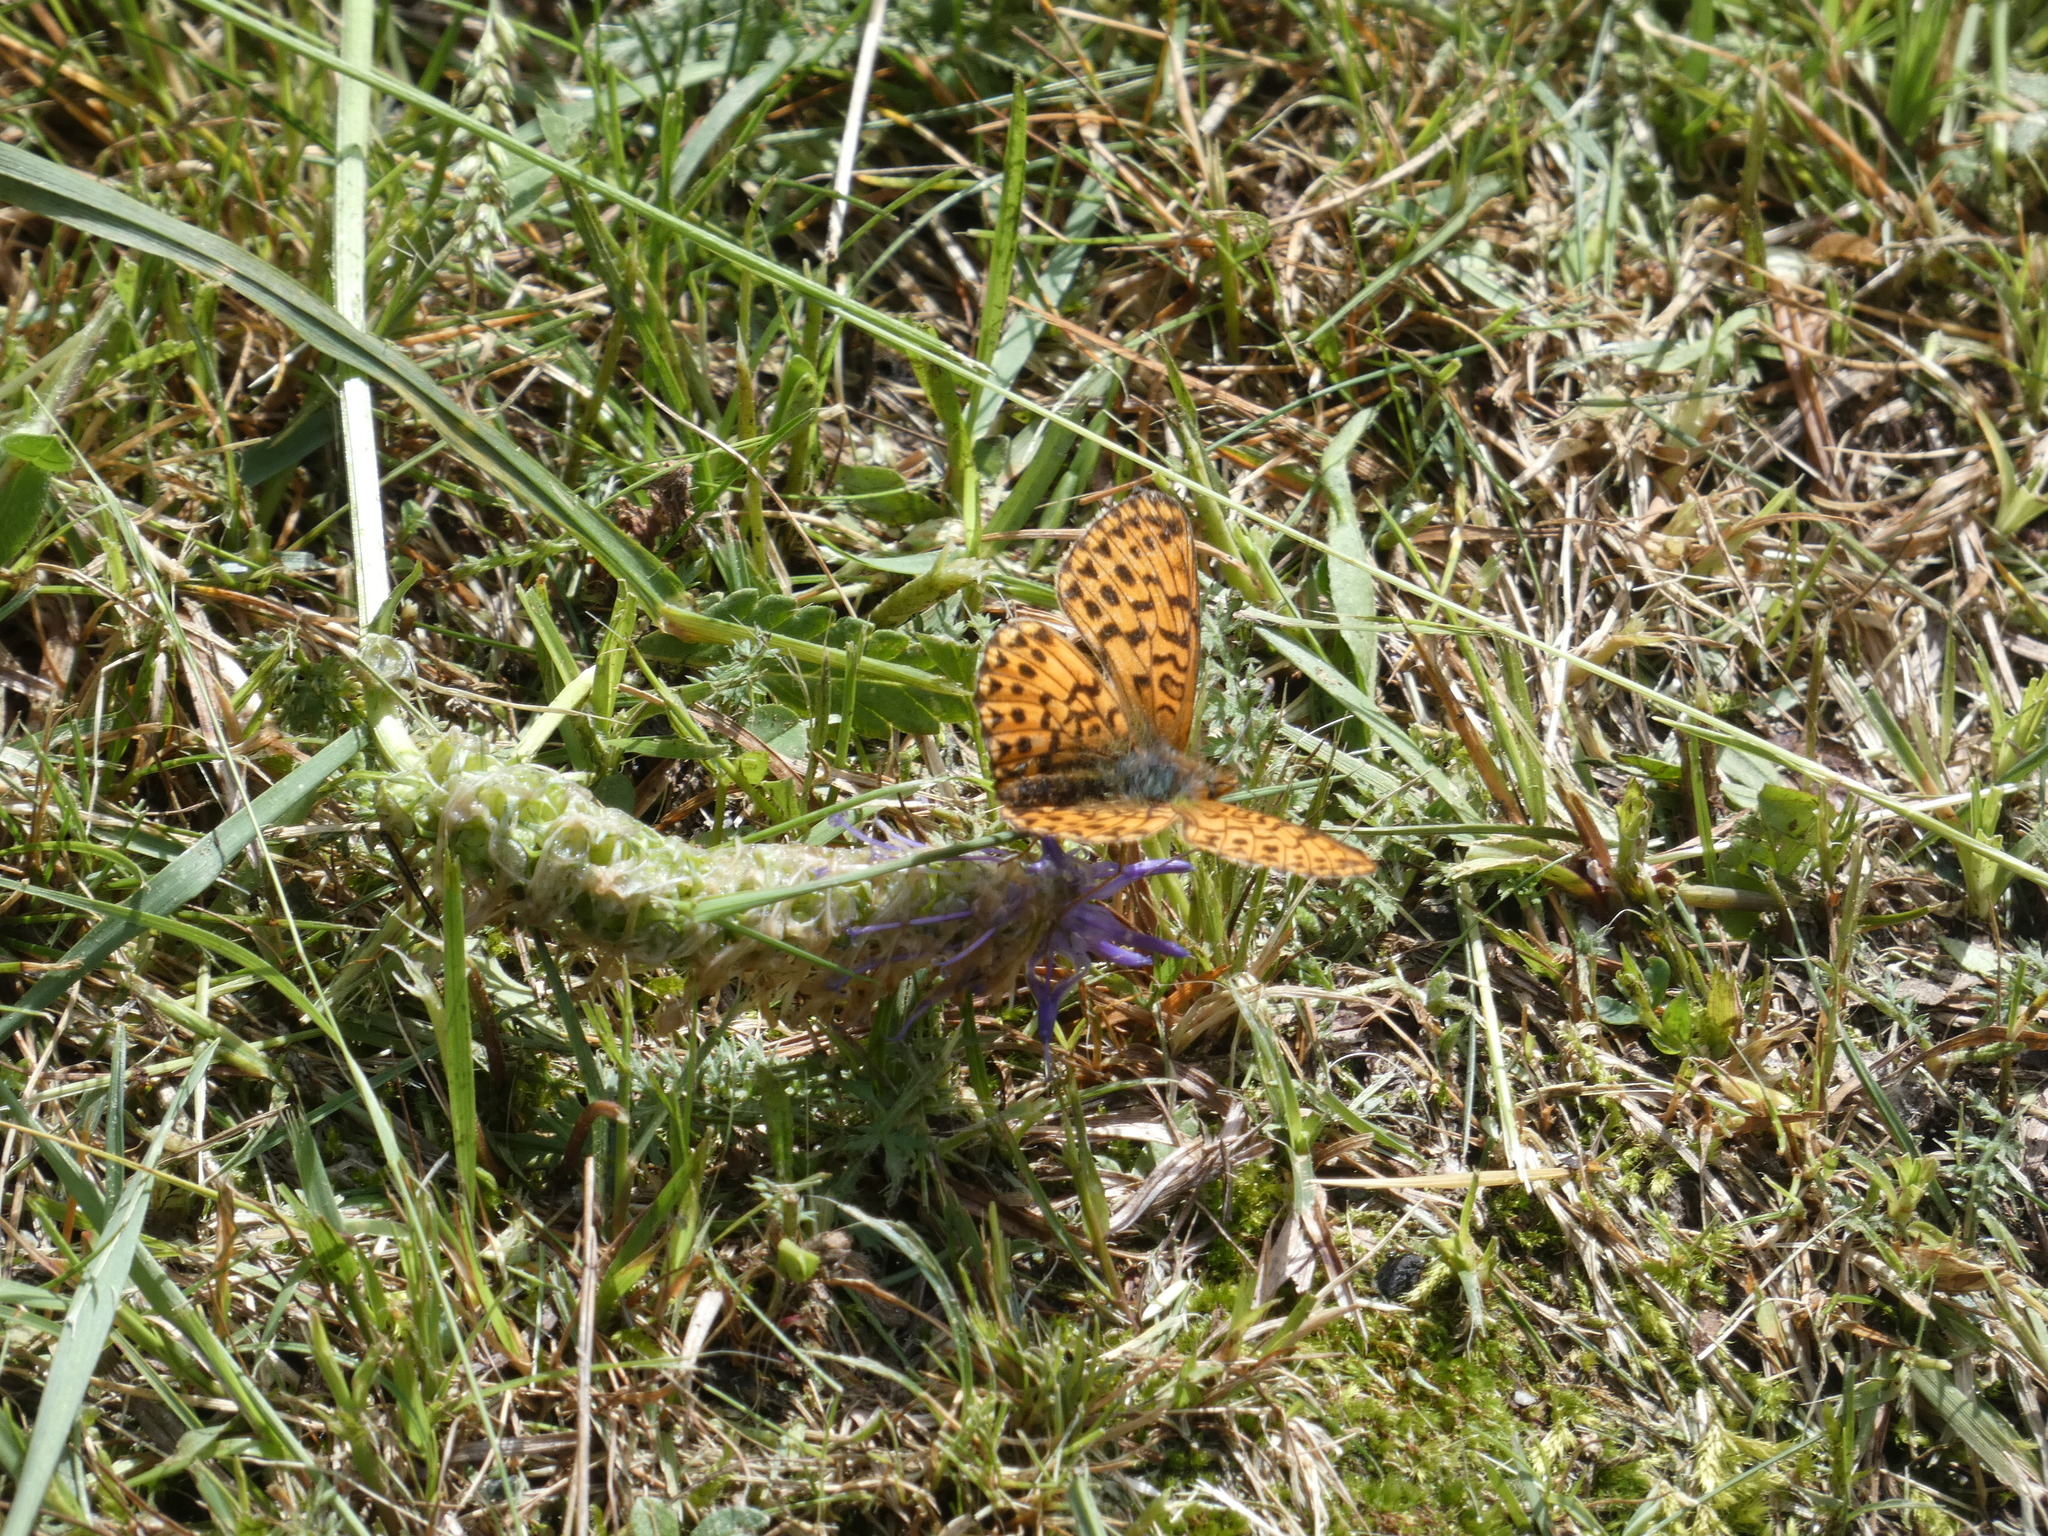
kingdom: Animalia
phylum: Arthropoda
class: Insecta
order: Lepidoptera
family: Nymphalidae
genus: Clossiana
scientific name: Clossiana euphrosyne
